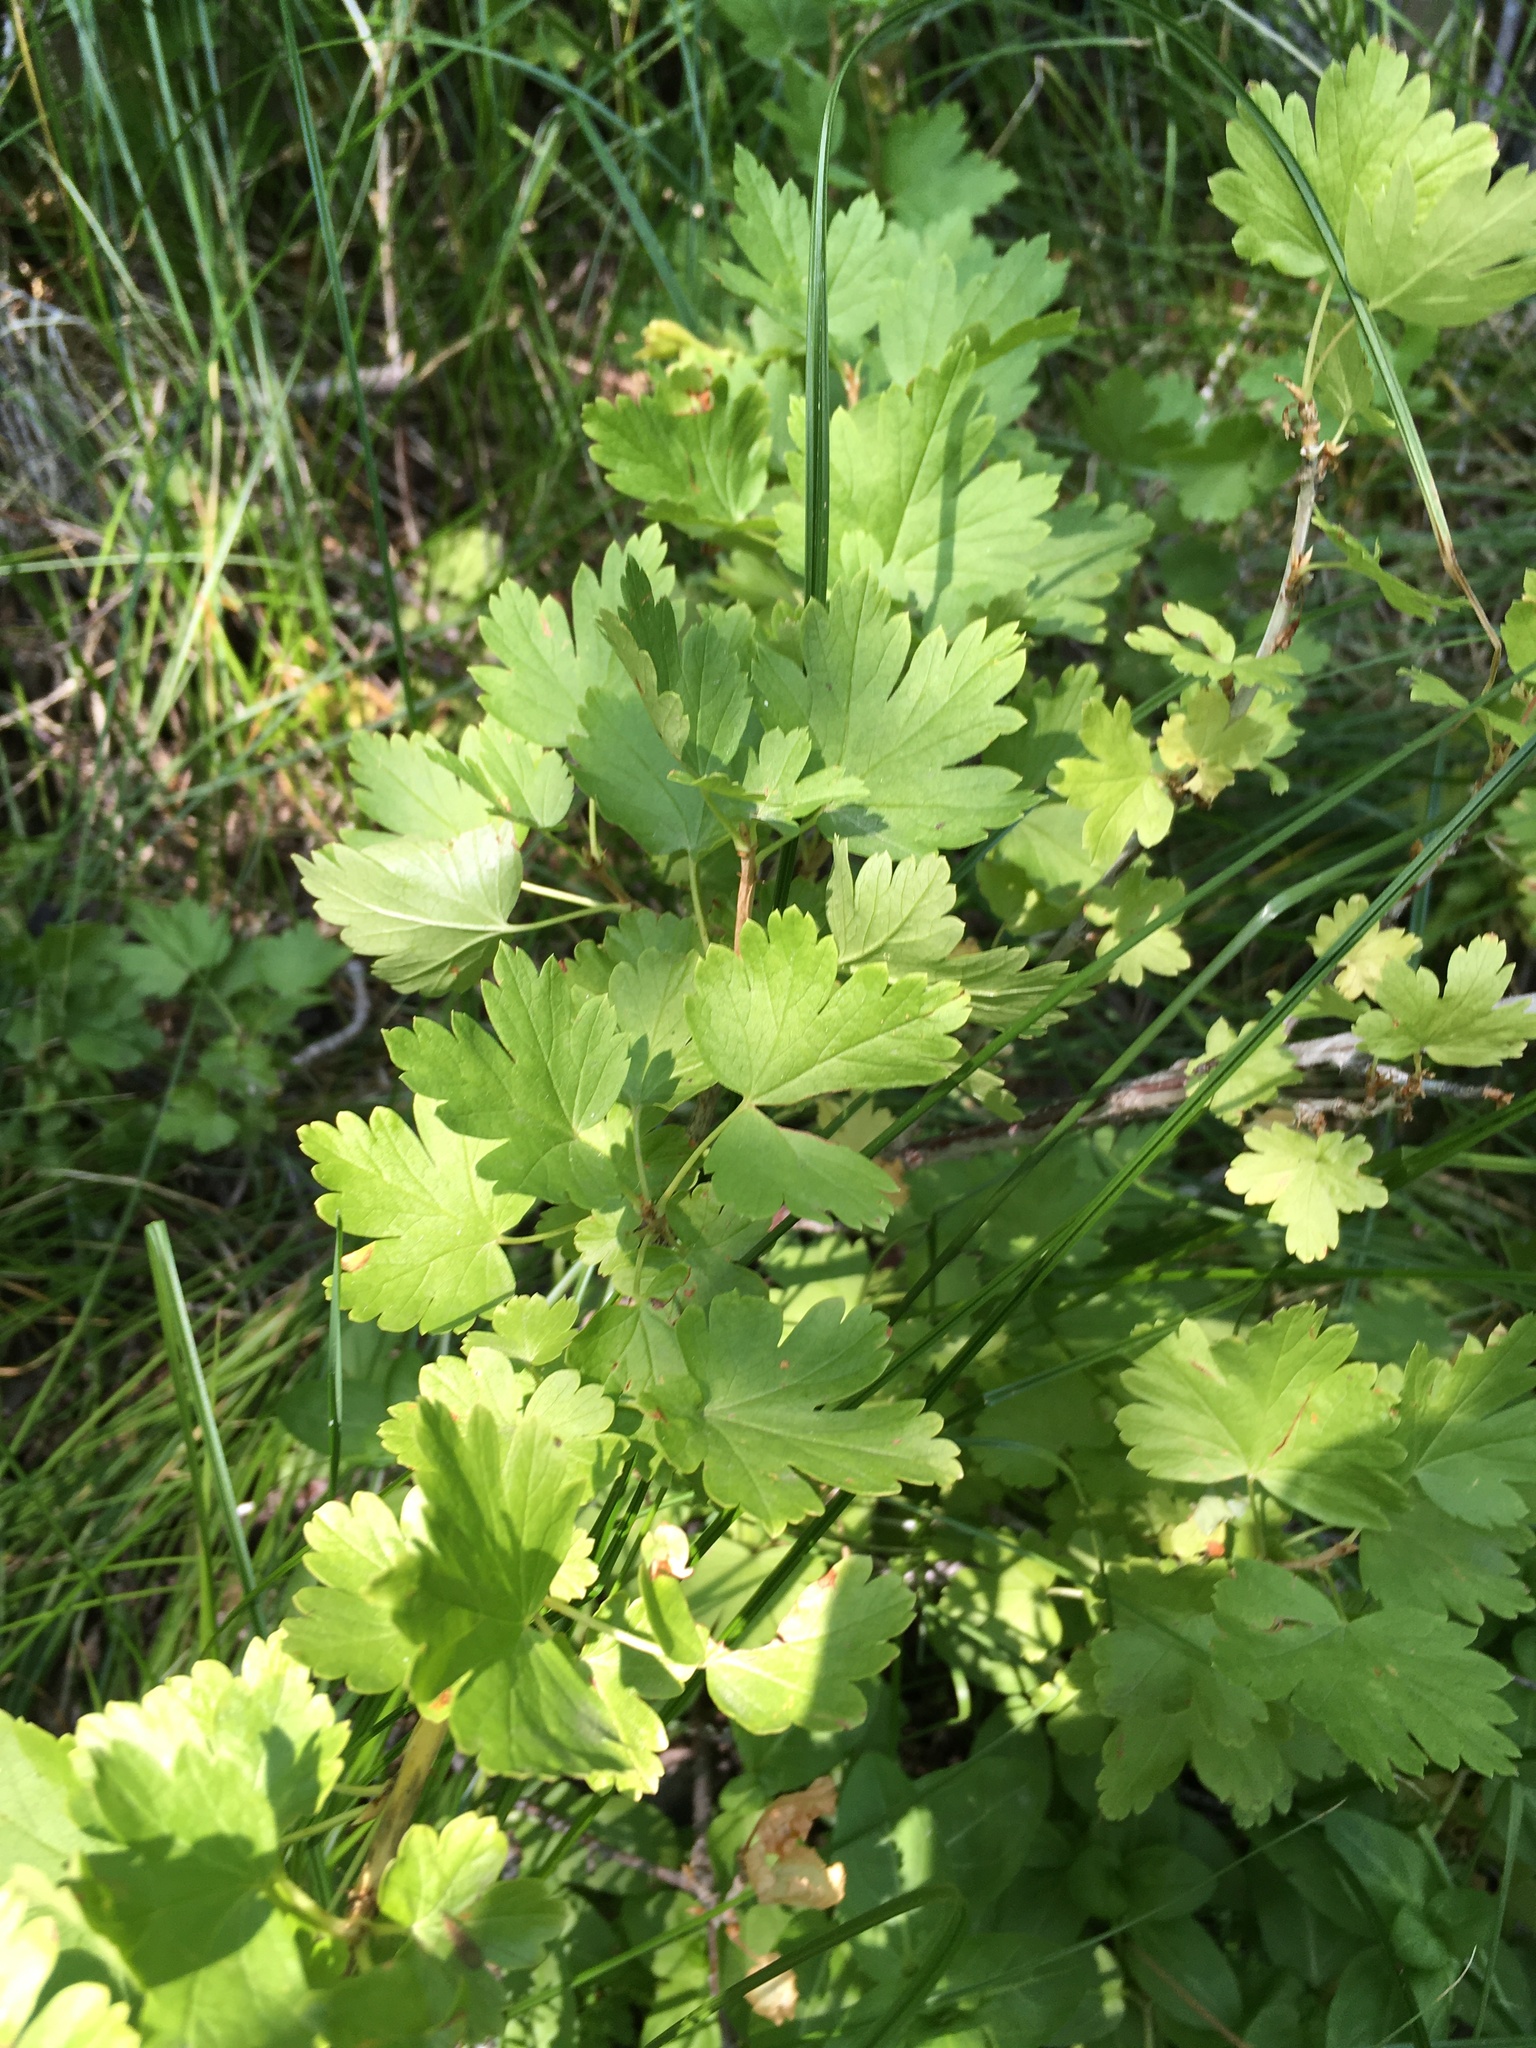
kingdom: Plantae
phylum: Tracheophyta
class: Magnoliopsida
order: Saxifragales
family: Grossulariaceae
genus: Ribes
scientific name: Ribes inerme
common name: White-stem gooseberry
